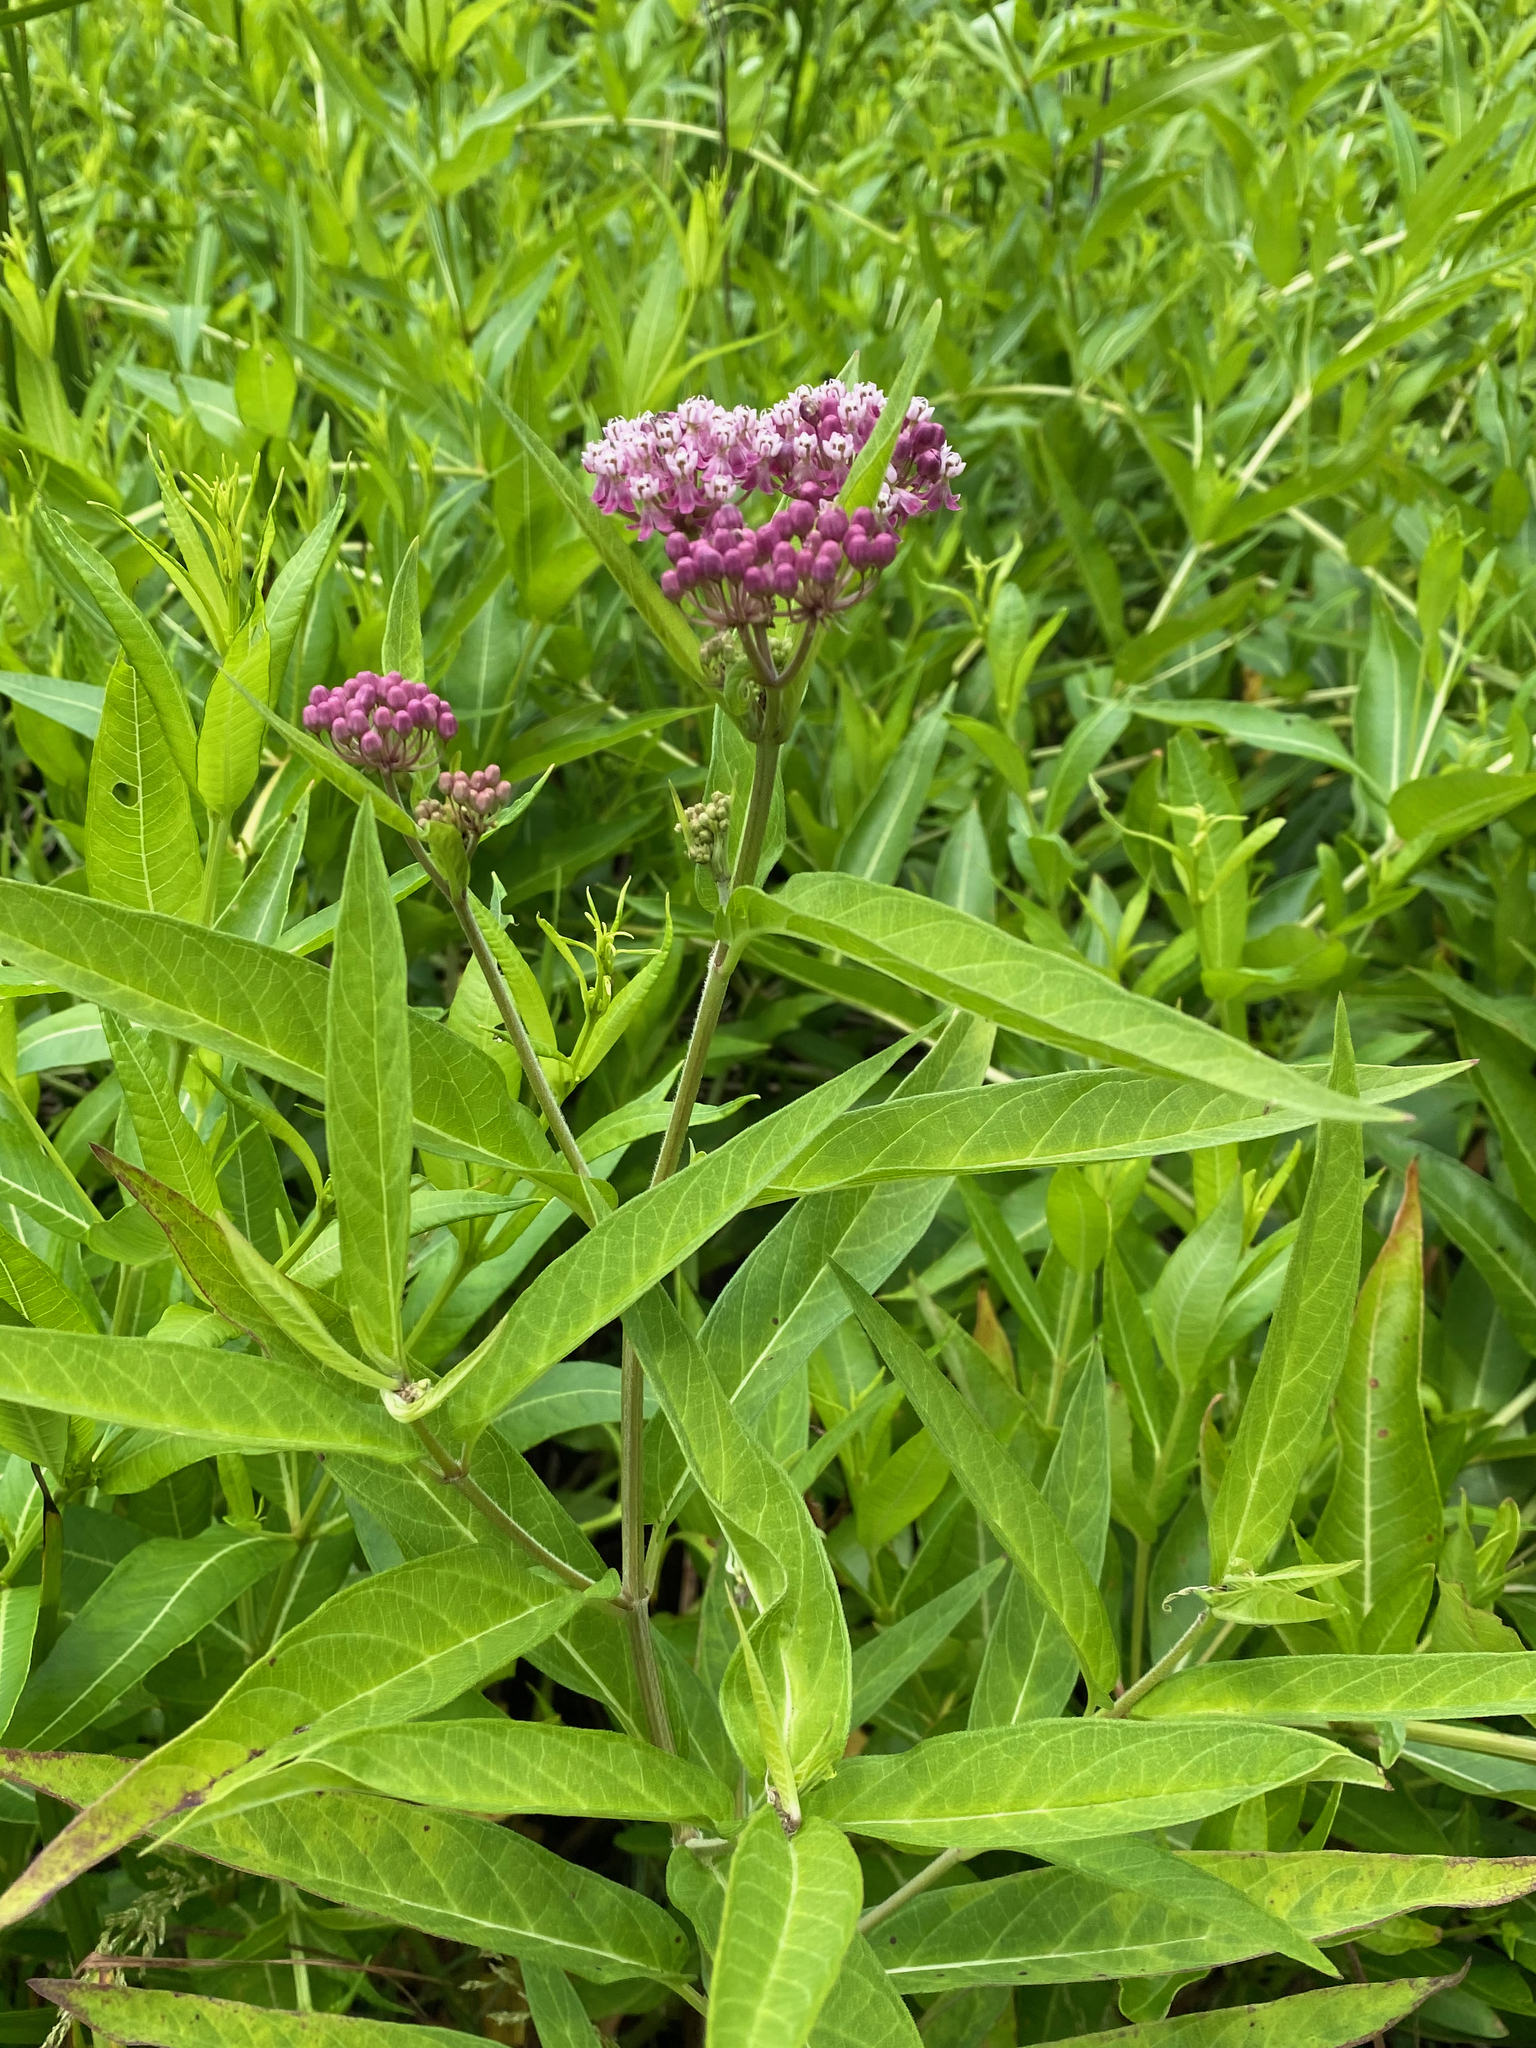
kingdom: Plantae
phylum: Tracheophyta
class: Magnoliopsida
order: Gentianales
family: Apocynaceae
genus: Asclepias
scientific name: Asclepias incarnata
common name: Swamp milkweed
